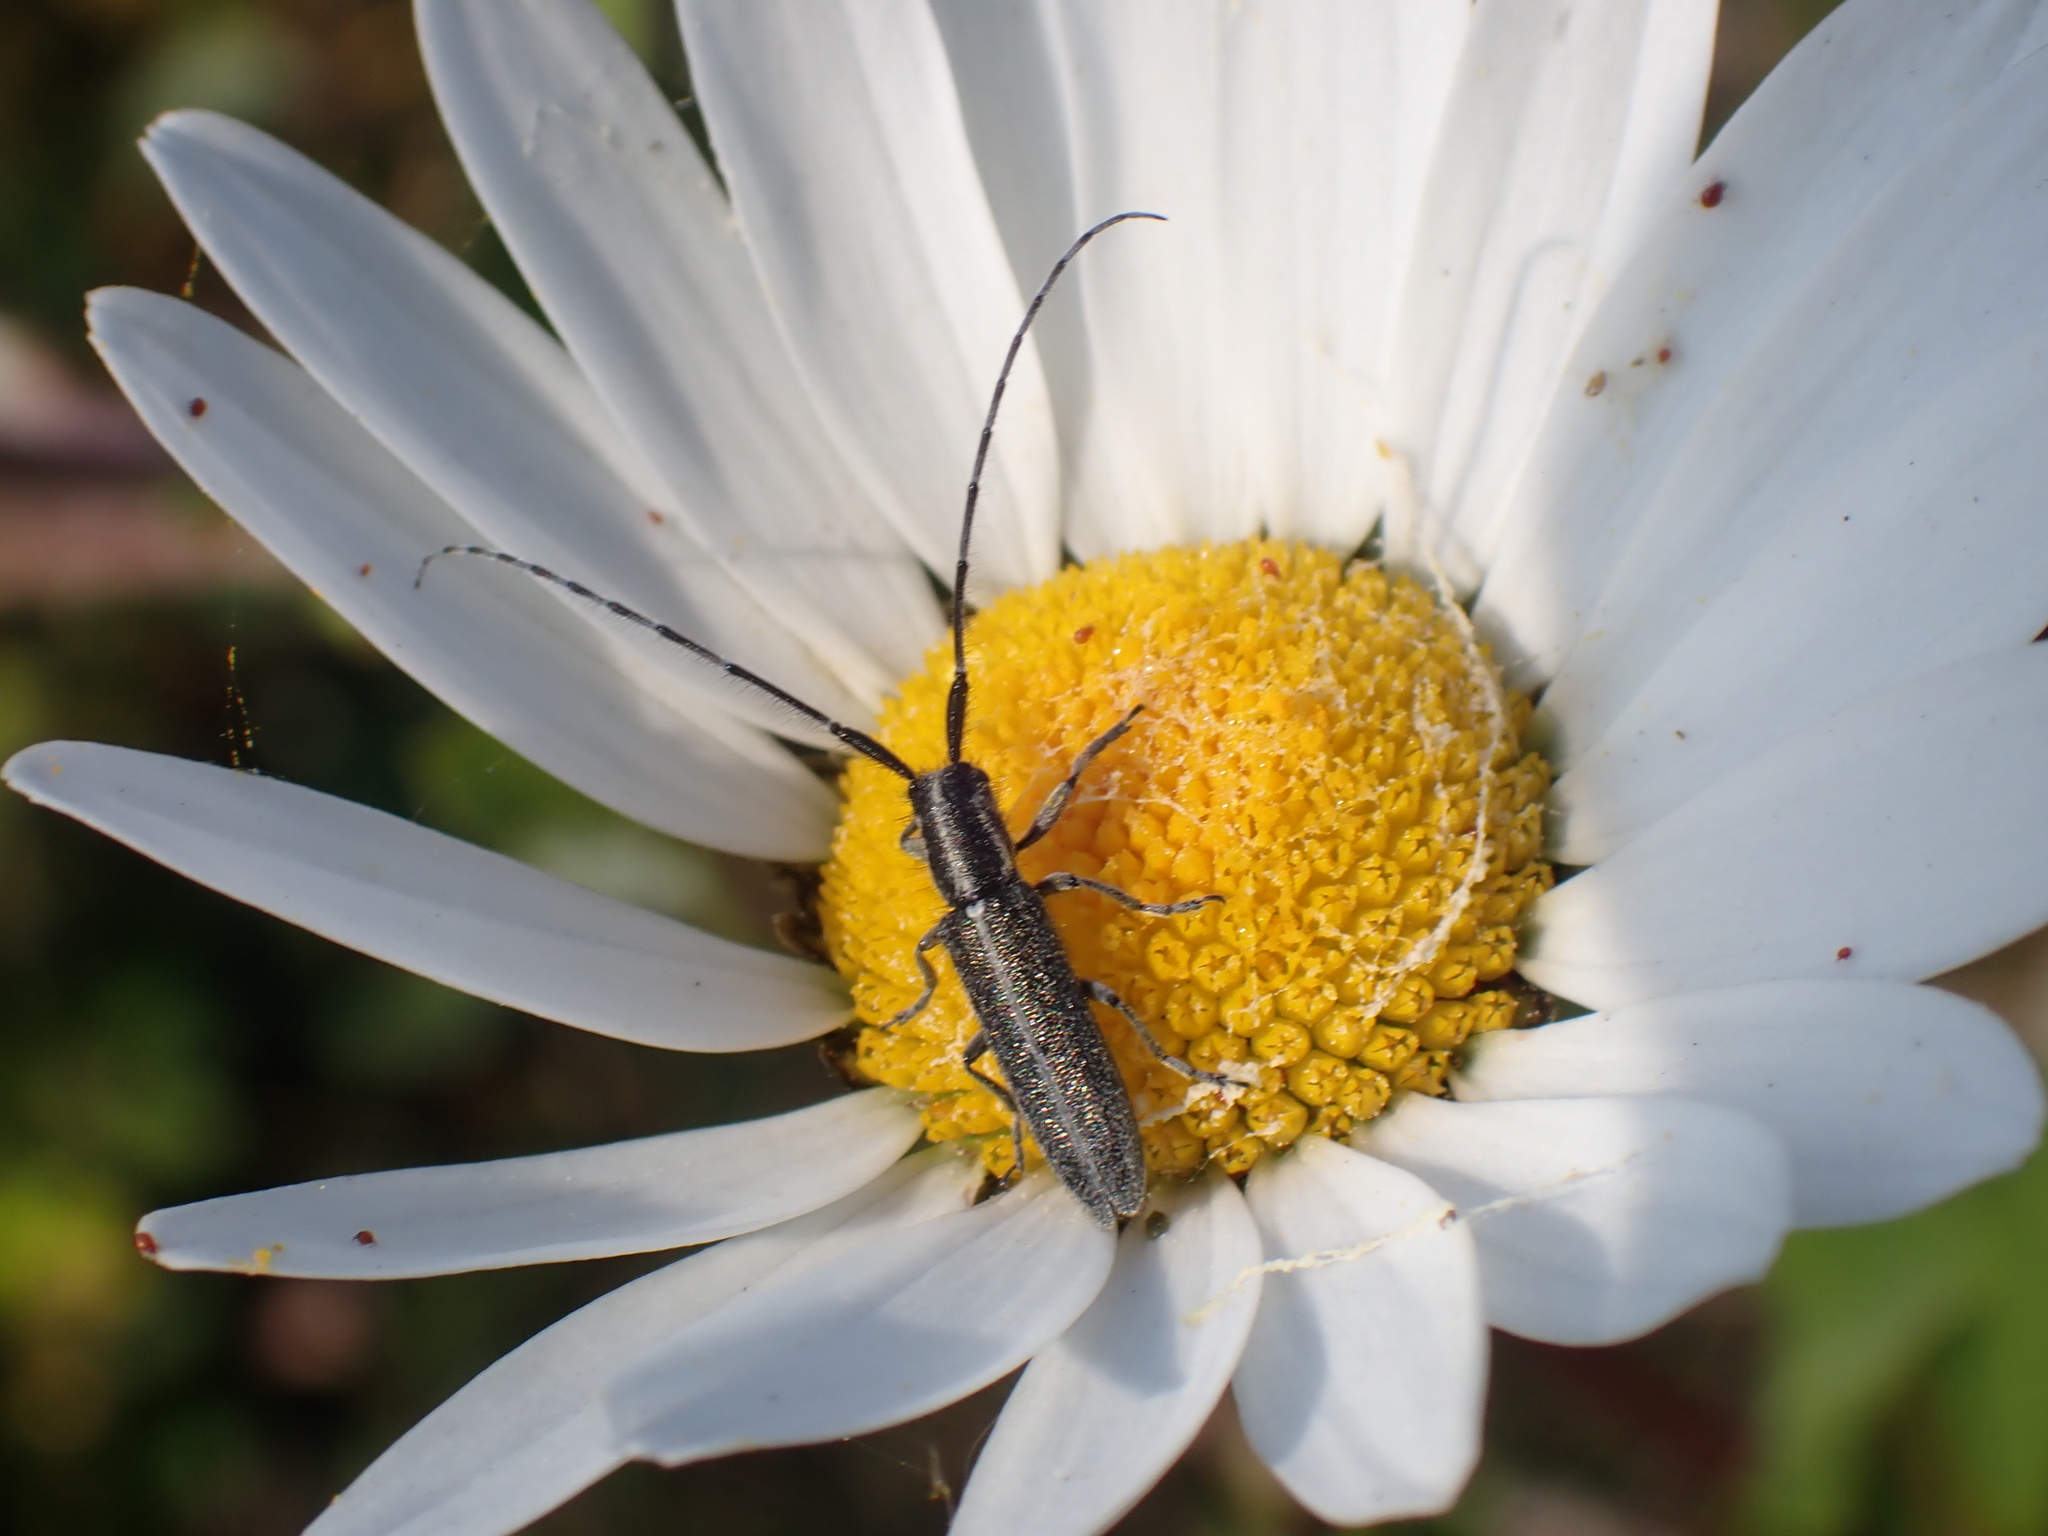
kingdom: Animalia
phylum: Arthropoda
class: Insecta
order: Coleoptera
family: Cerambycidae
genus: Agapanthia
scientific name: Agapanthia cardui
